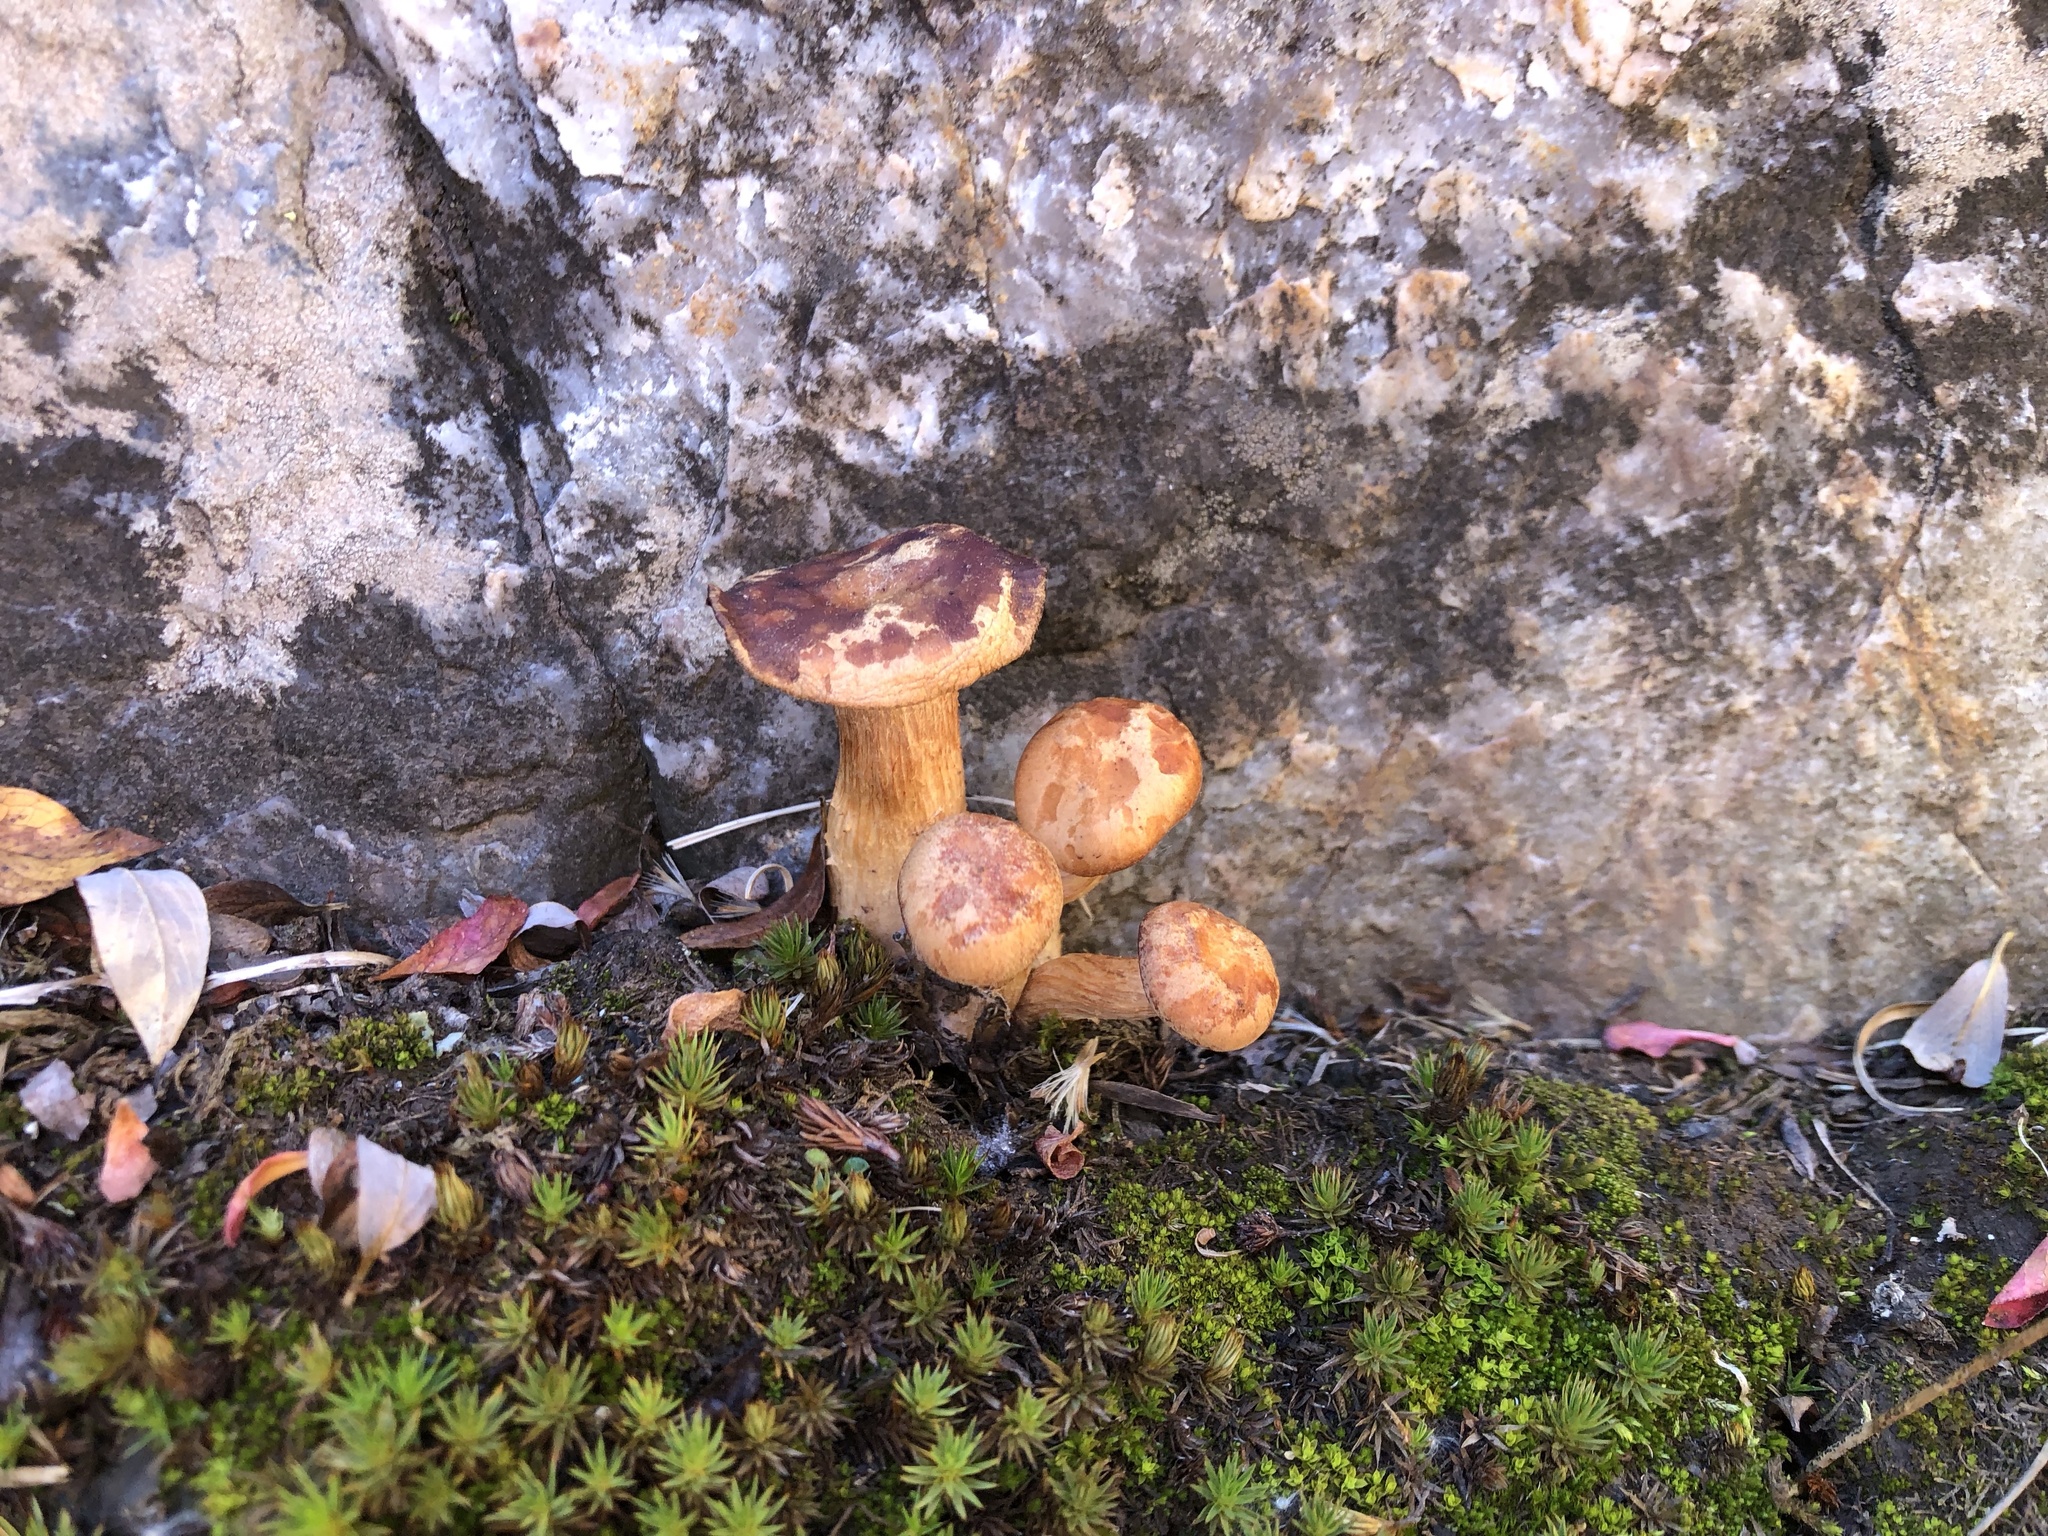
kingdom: Fungi
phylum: Basidiomycota
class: Agaricomycetes
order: Boletales
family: Boletaceae
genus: Chalciporus
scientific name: Chalciporus piperatus
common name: Peppery bolete
